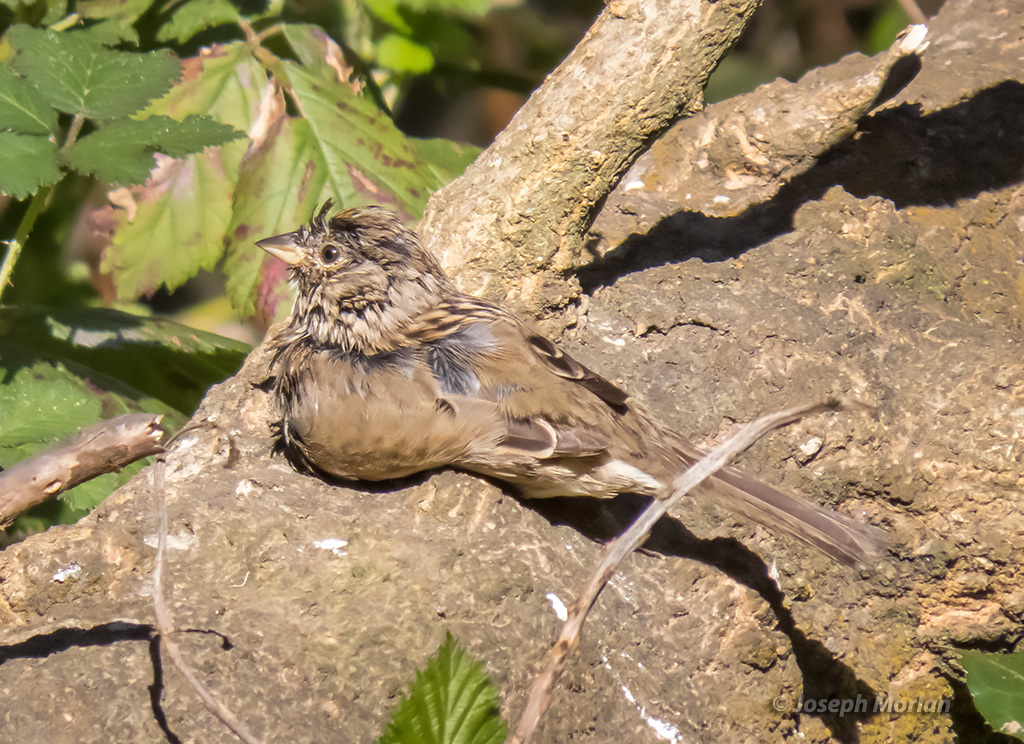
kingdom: Animalia
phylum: Chordata
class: Aves
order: Passeriformes
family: Passerellidae
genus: Zonotrichia
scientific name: Zonotrichia atricapilla
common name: Golden-crowned sparrow
